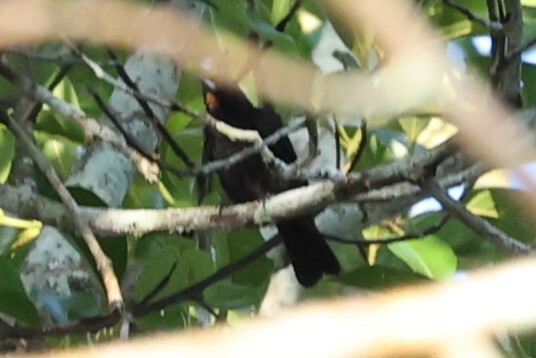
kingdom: Animalia
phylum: Chordata
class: Aves
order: Passeriformes
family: Thraupidae
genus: Loriotus
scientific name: Loriotus cristatus
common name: Flame-crested tanager
